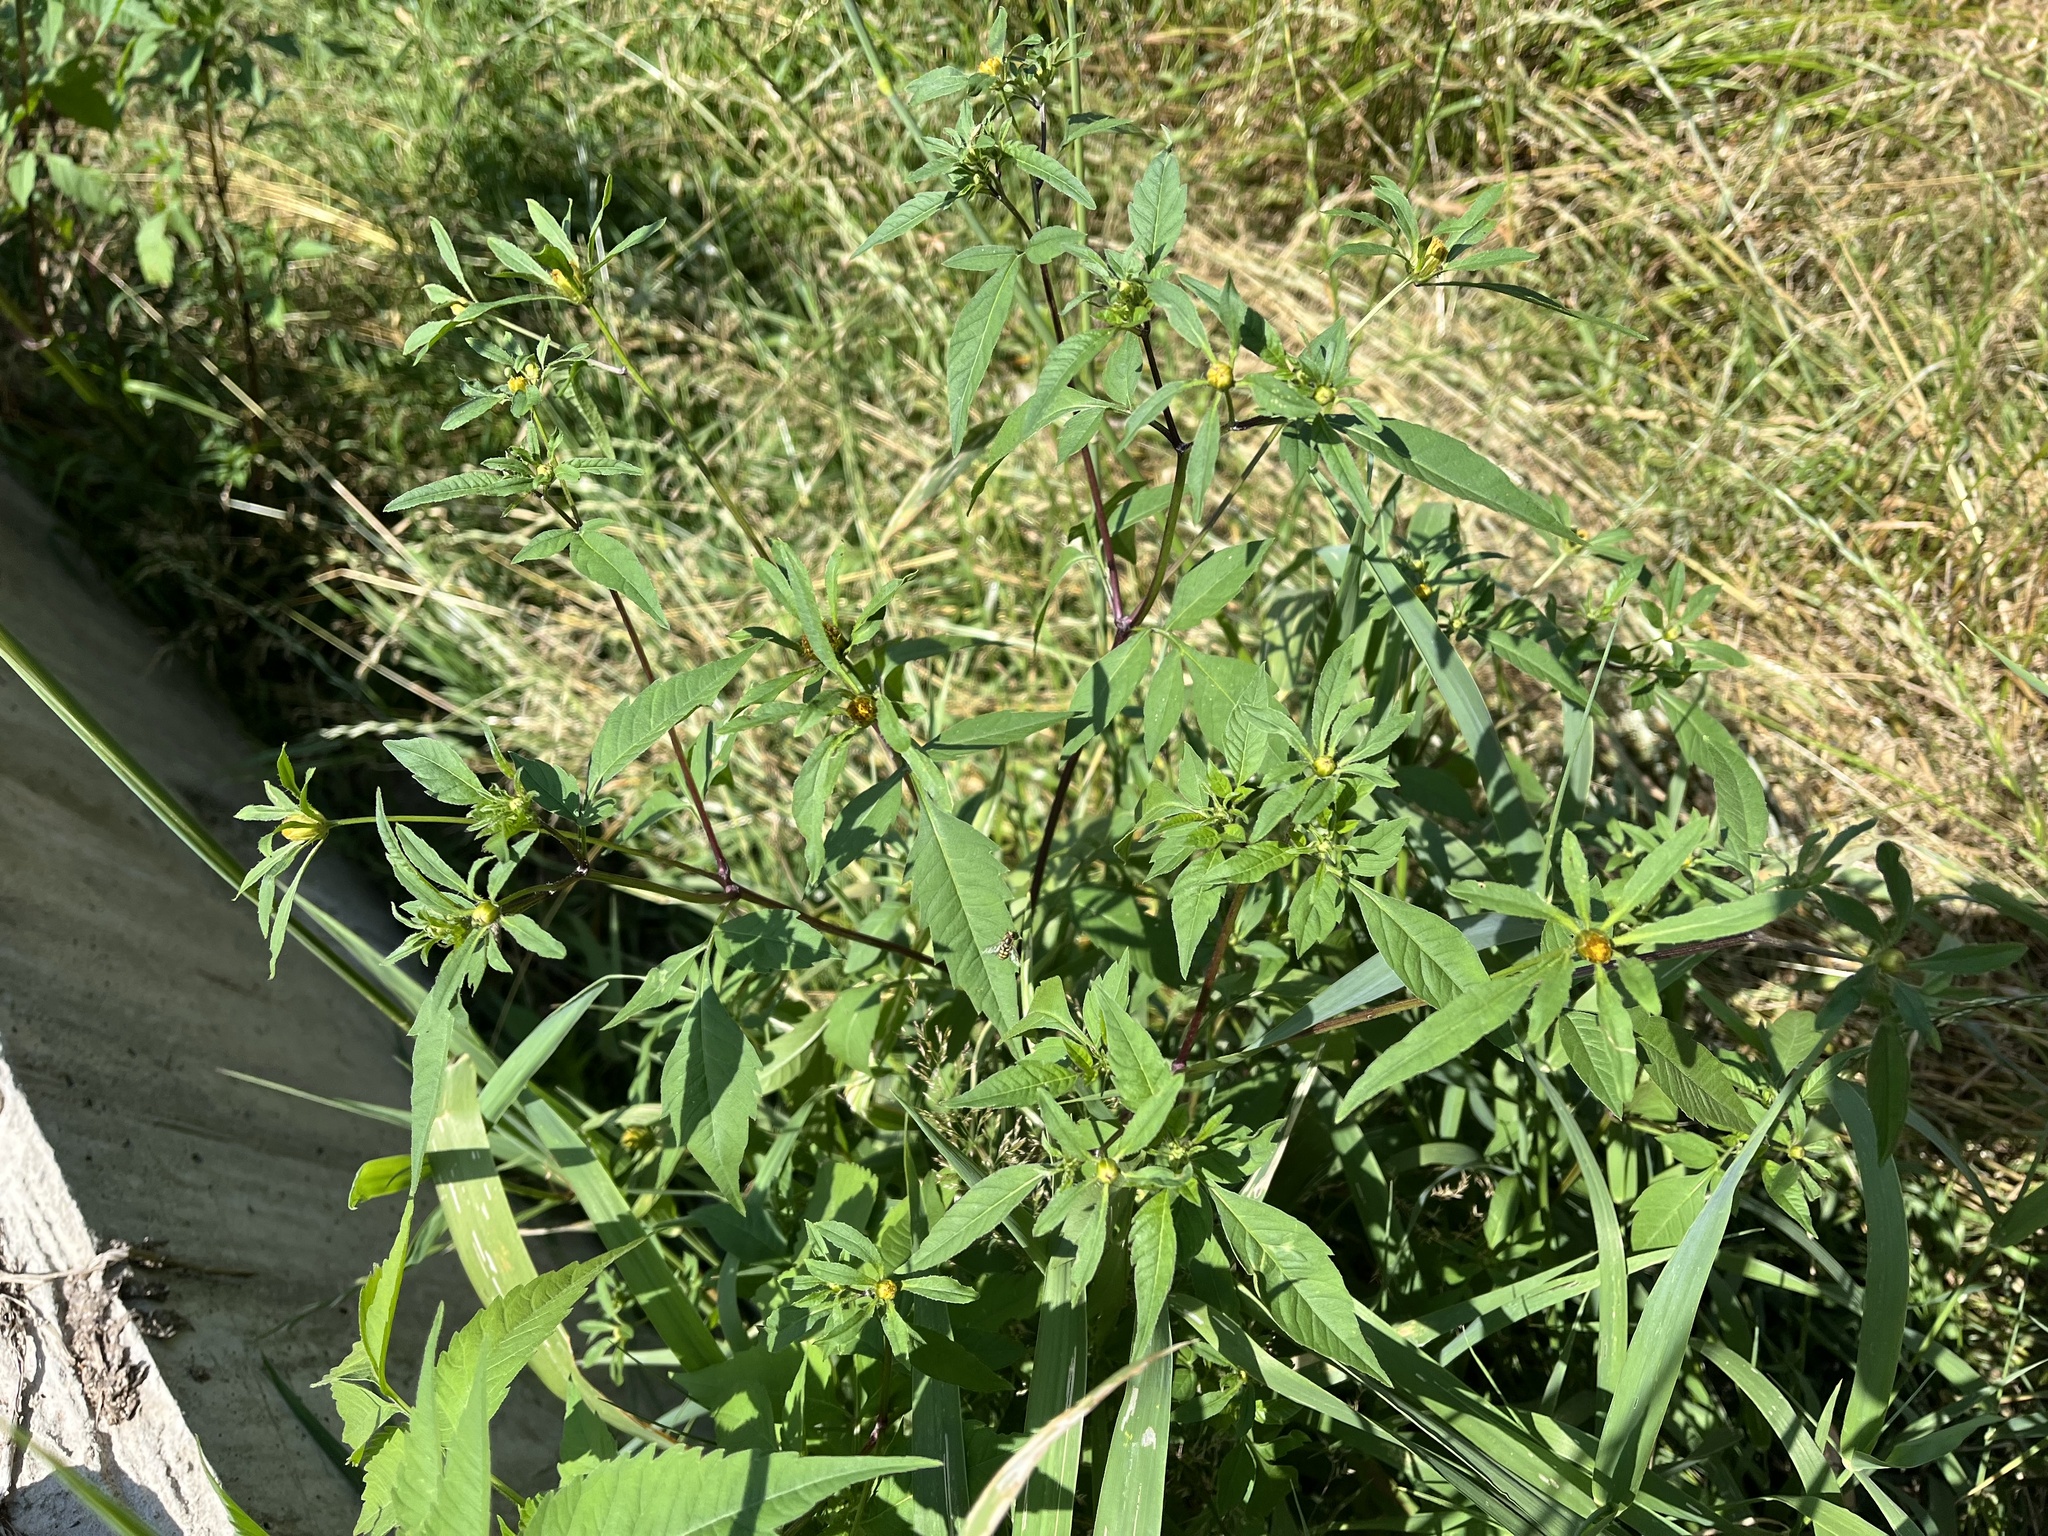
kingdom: Plantae
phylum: Tracheophyta
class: Magnoliopsida
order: Asterales
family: Asteraceae
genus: Bidens
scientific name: Bidens frondosa
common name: Beggarticks
